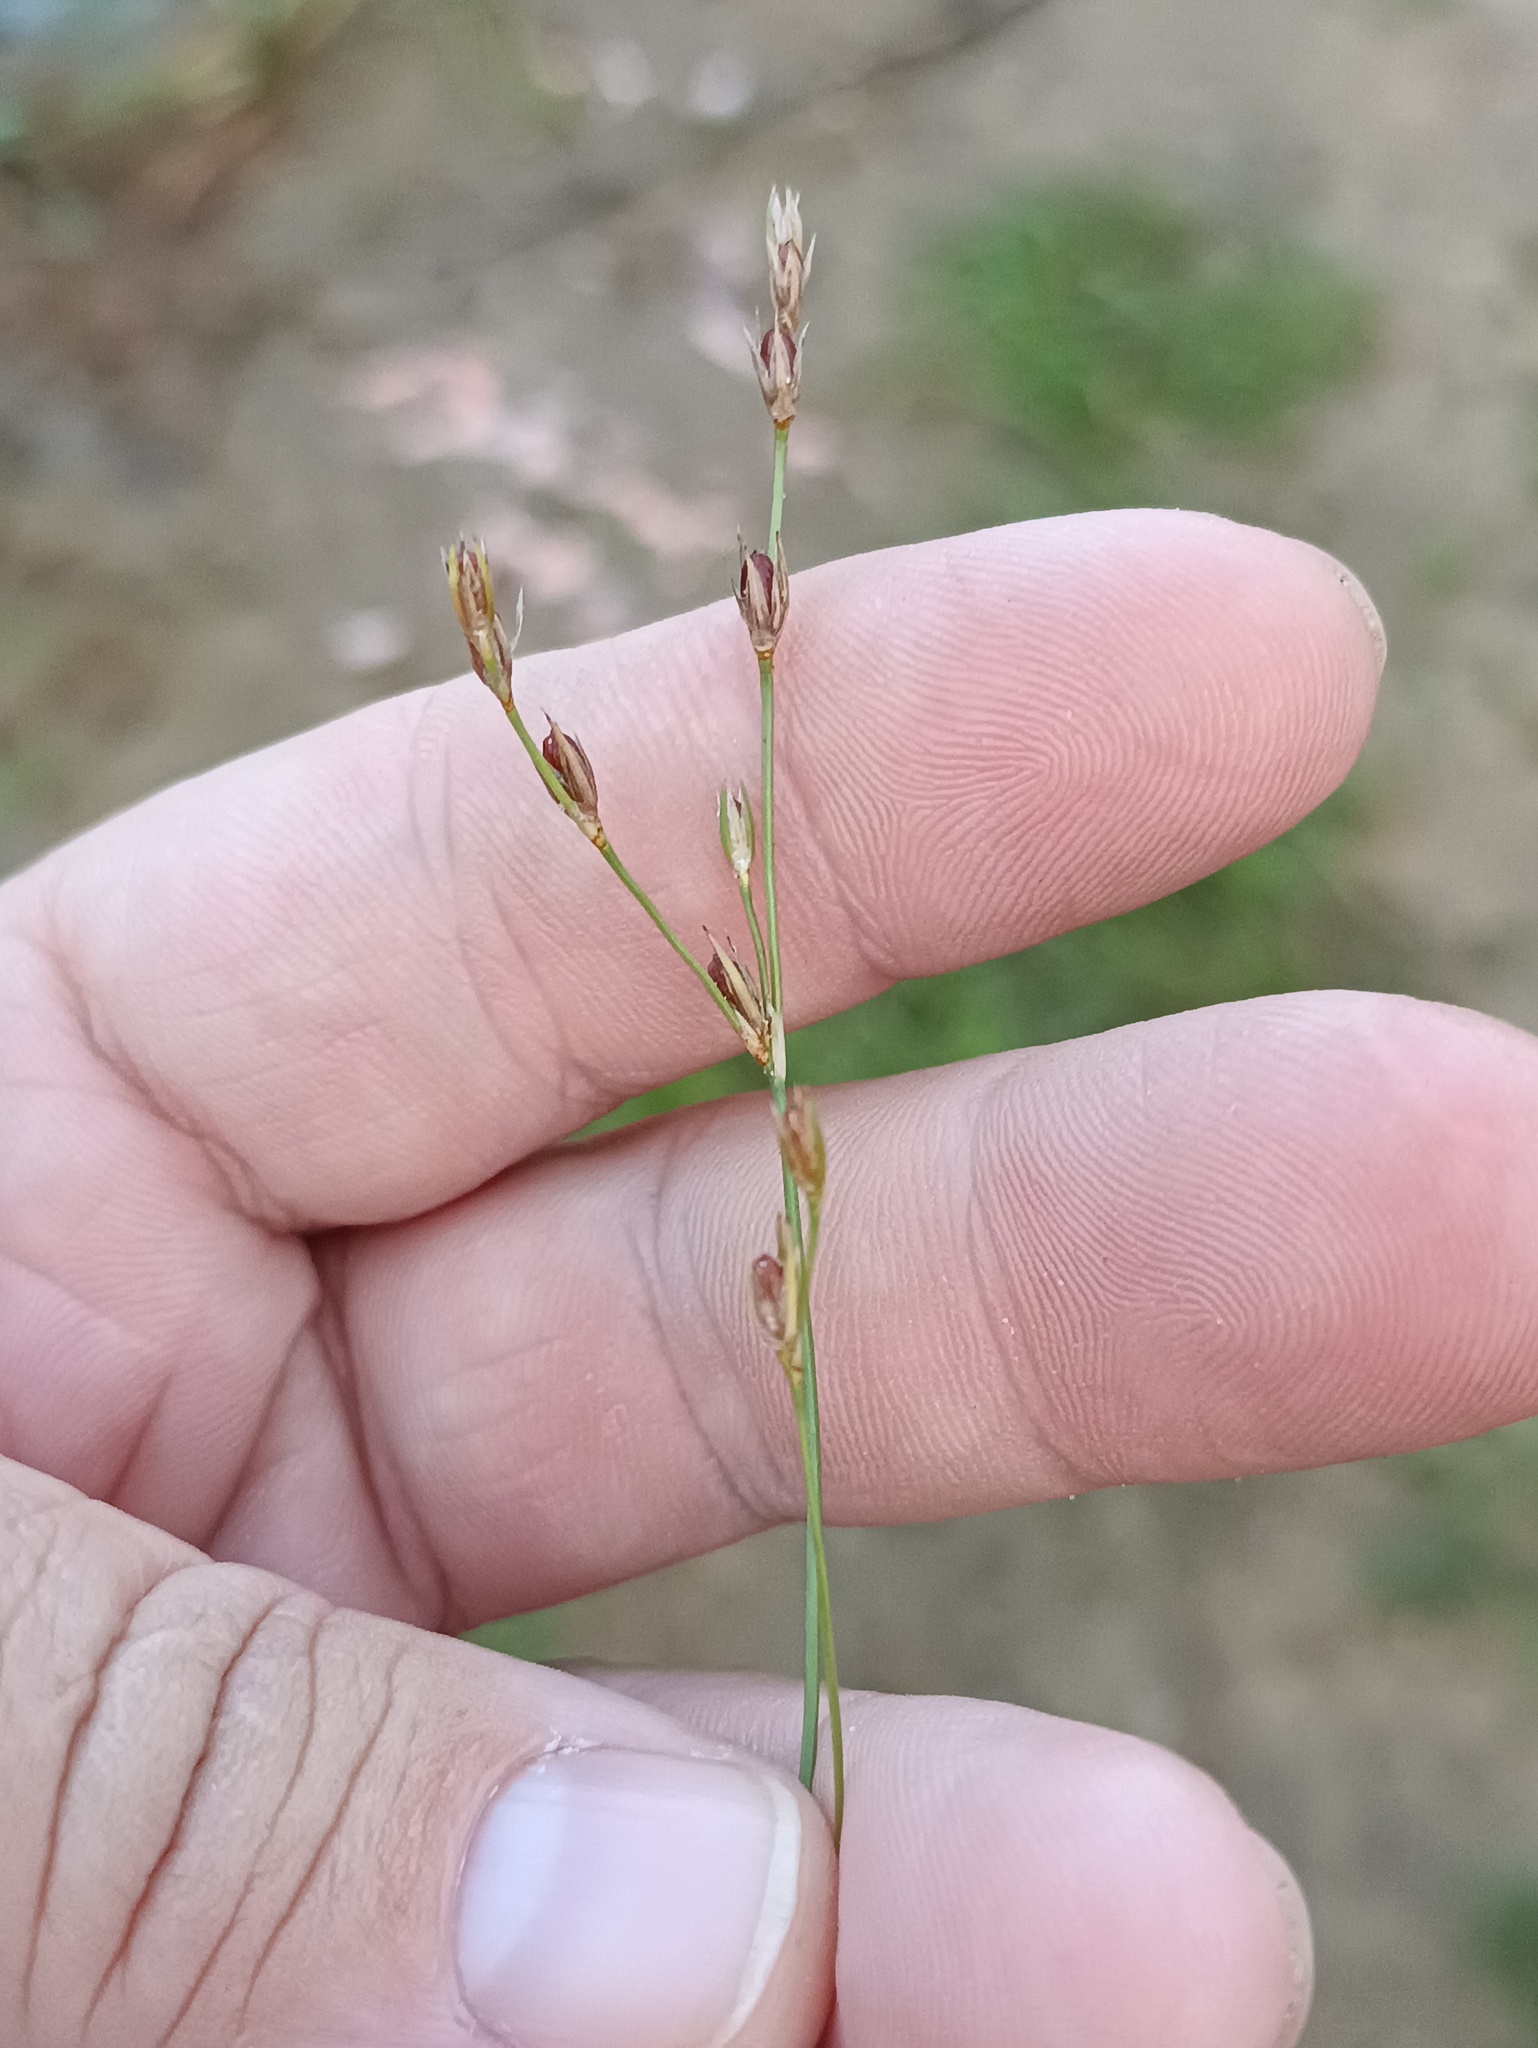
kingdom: Plantae
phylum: Tracheophyta
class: Liliopsida
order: Poales
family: Juncaceae
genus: Juncus
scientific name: Juncus bufonius
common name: Toad rush
